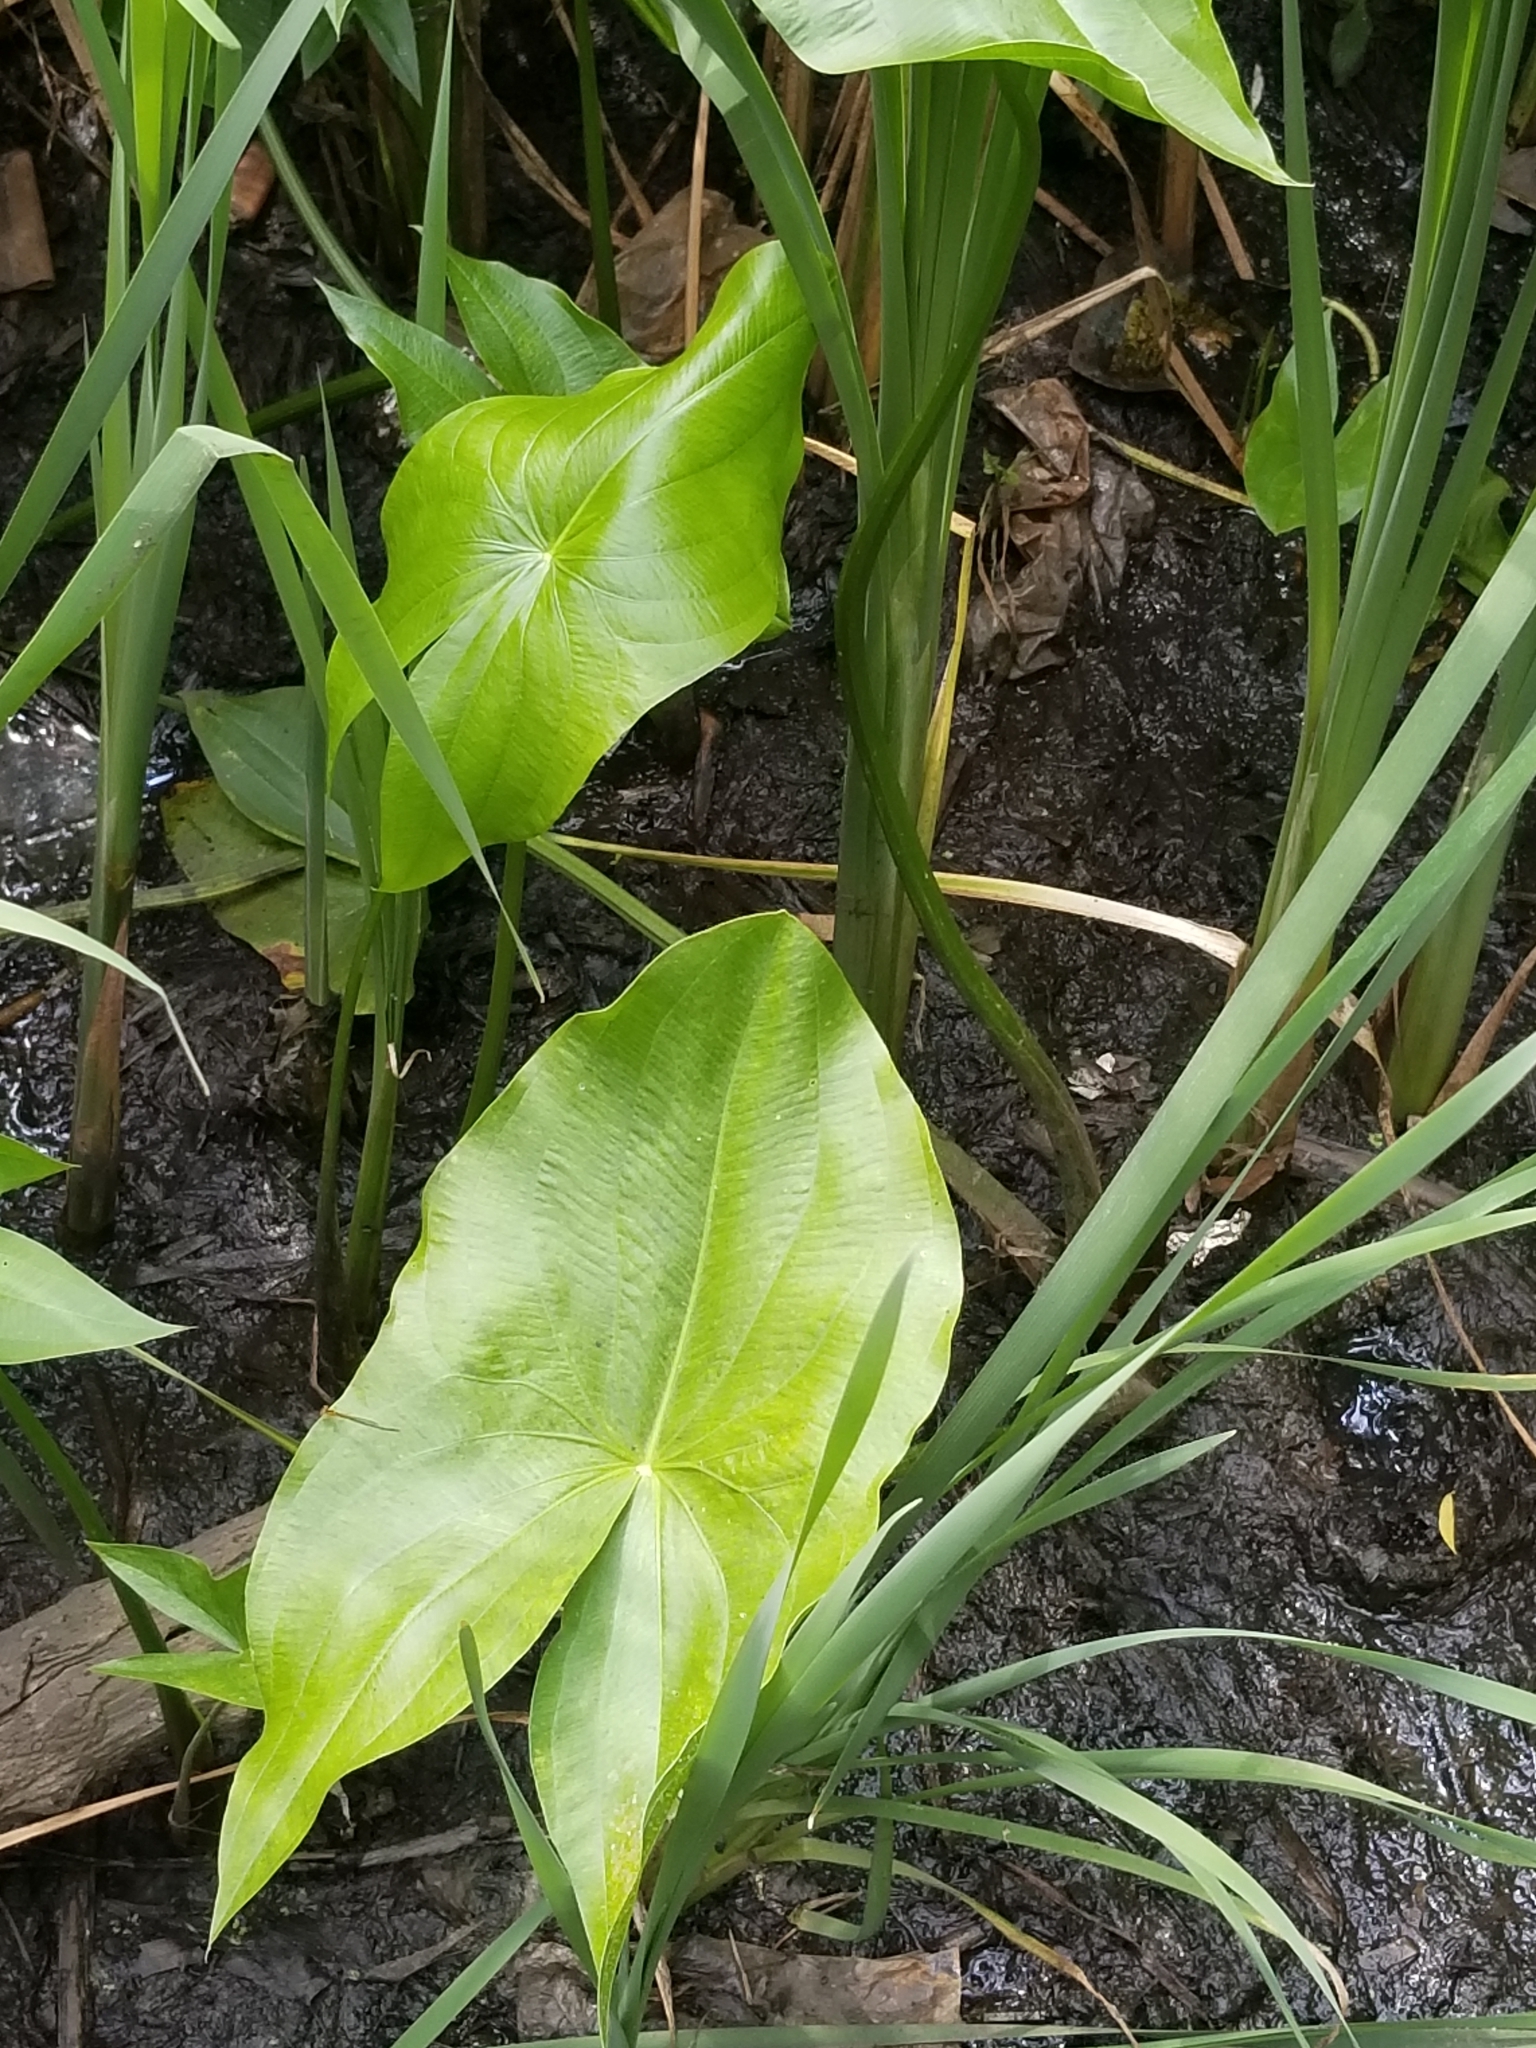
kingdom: Plantae
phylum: Tracheophyta
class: Liliopsida
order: Alismatales
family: Alismataceae
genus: Sagittaria
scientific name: Sagittaria latifolia
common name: Duck-potato
